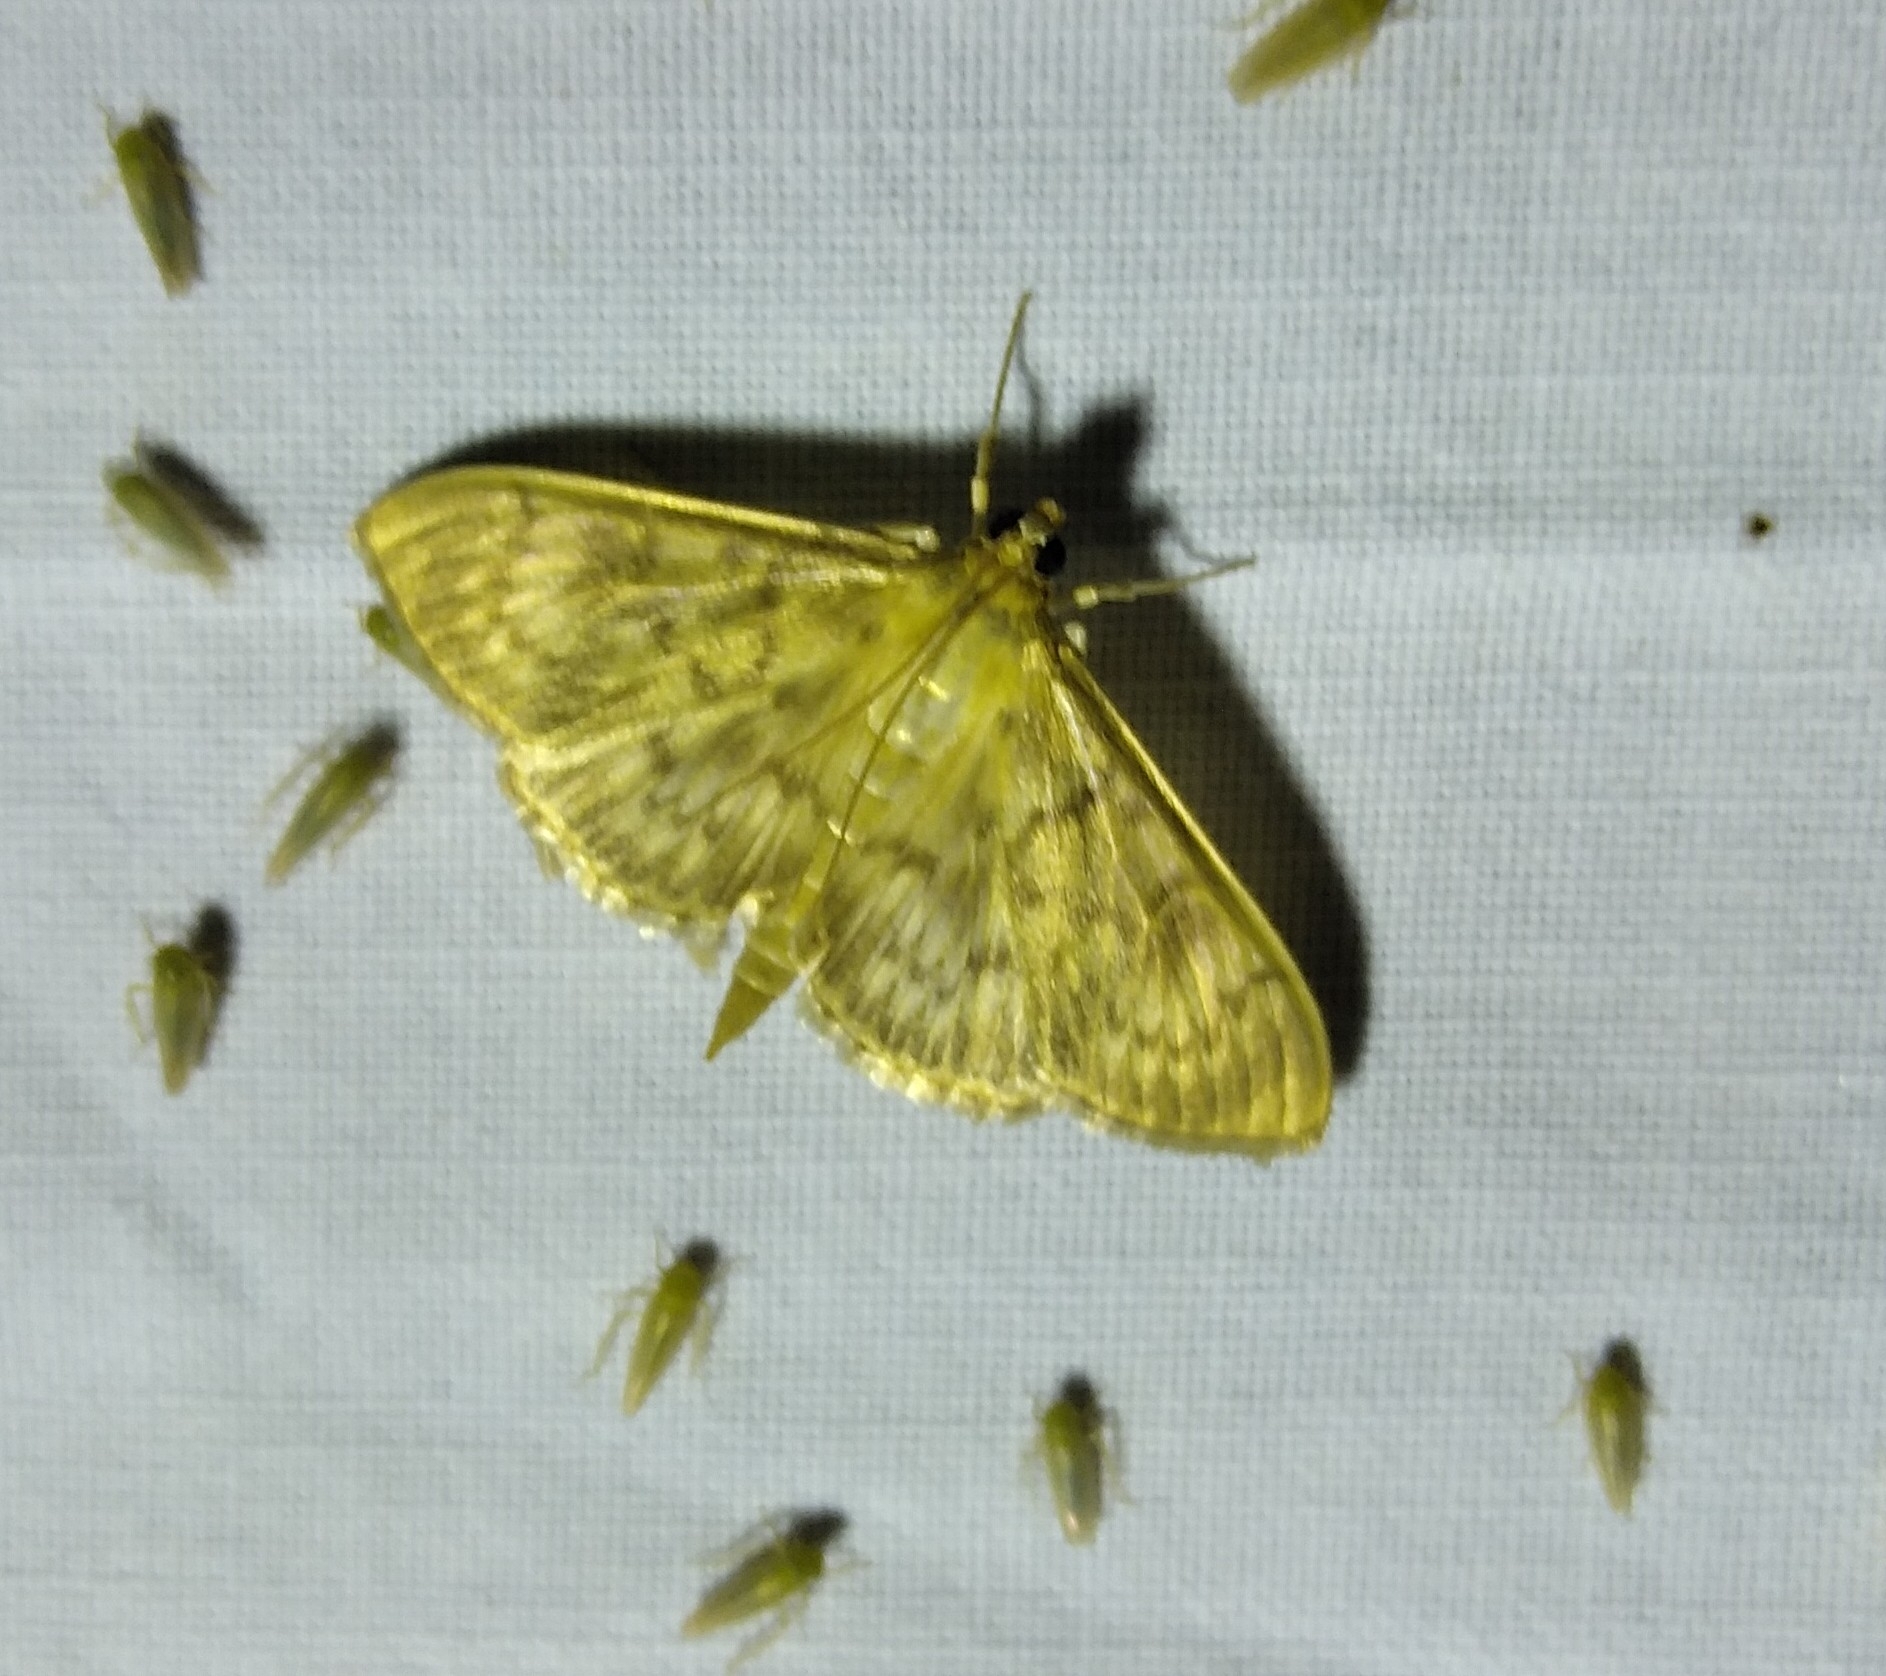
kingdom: Animalia
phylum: Arthropoda
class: Insecta
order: Lepidoptera
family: Crambidae
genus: Patania
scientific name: Patania ruralis
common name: Mother of pearl
